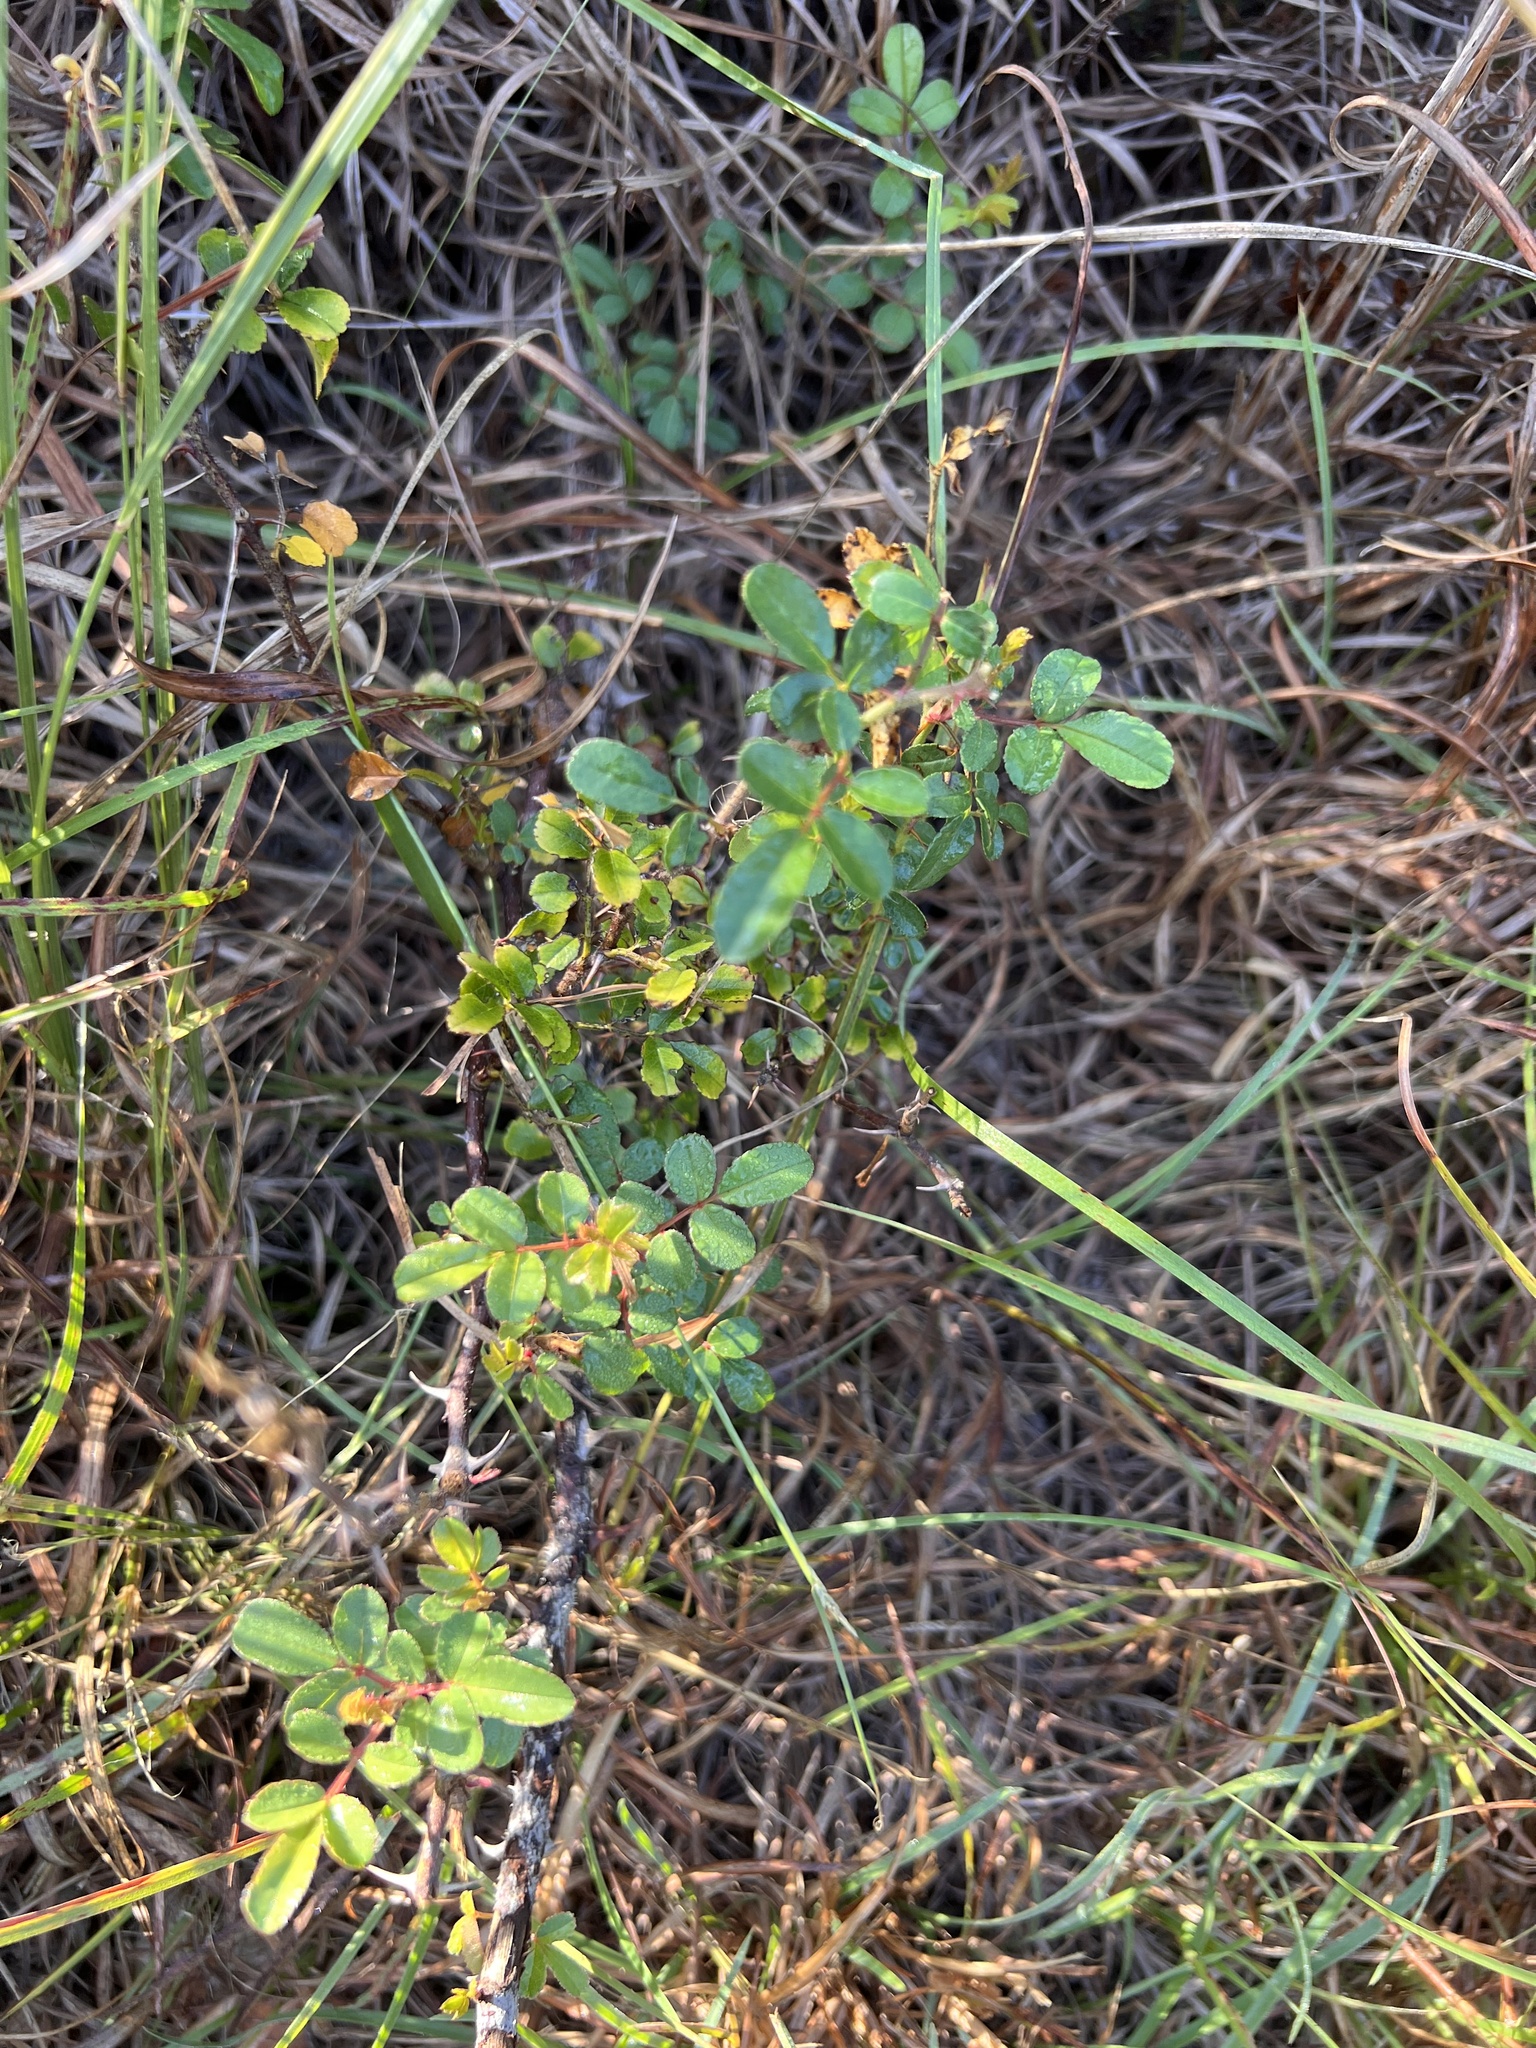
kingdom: Plantae
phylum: Tracheophyta
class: Magnoliopsida
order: Rosales
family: Rosaceae
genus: Rosa
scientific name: Rosa bracteata
